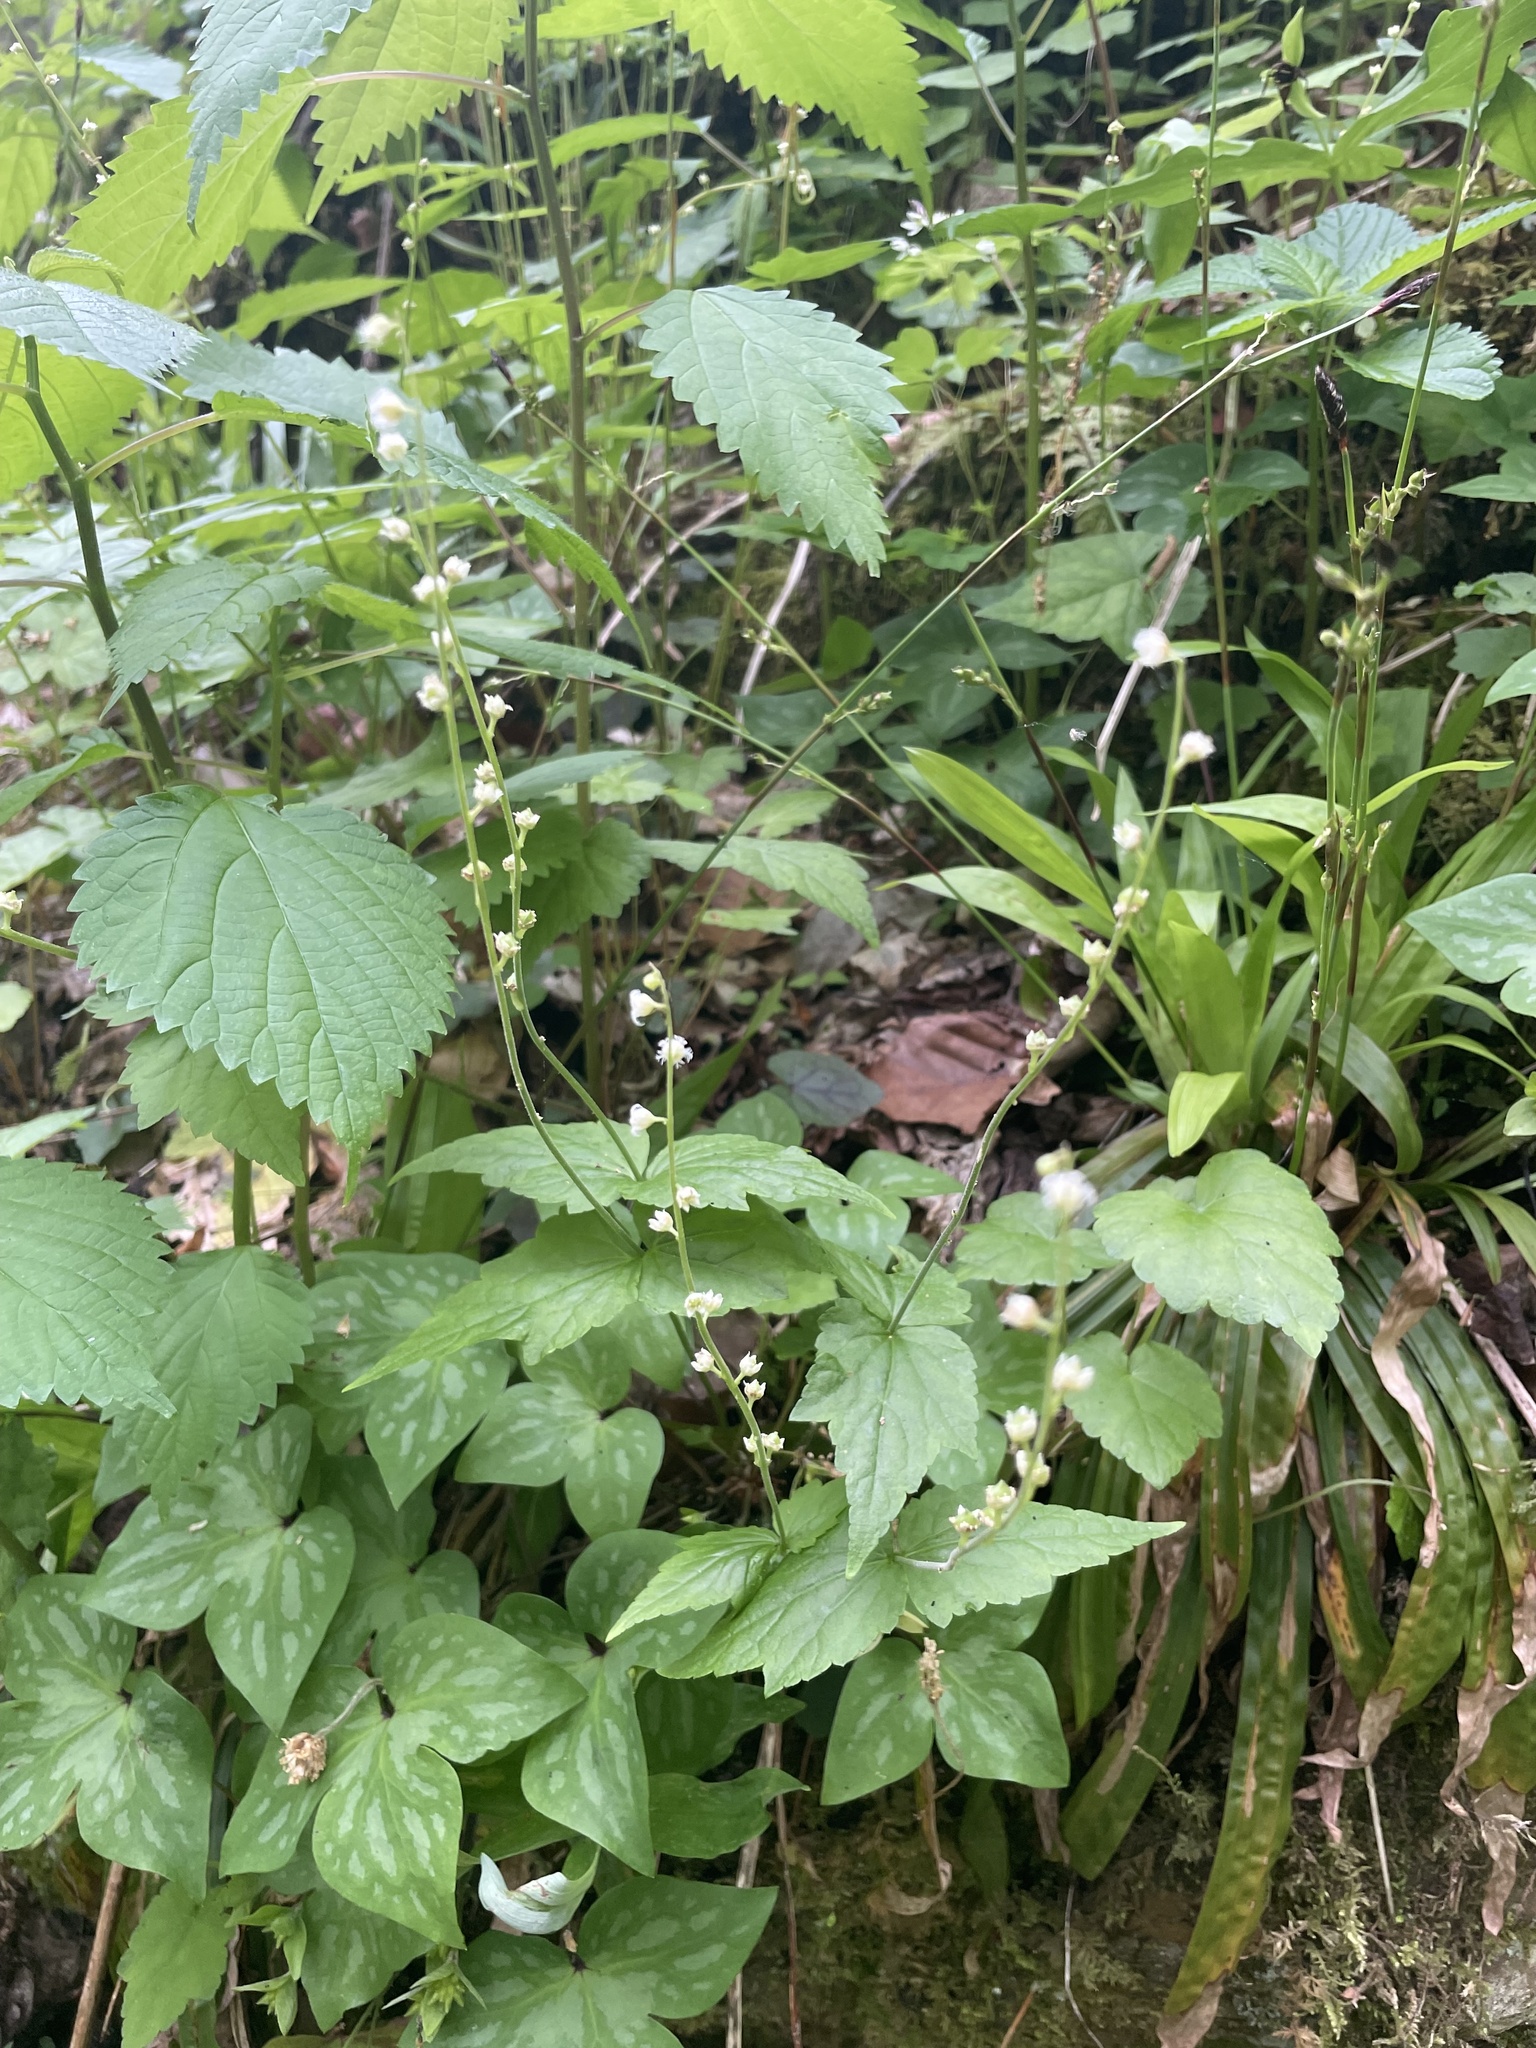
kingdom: Plantae
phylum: Tracheophyta
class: Magnoliopsida
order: Saxifragales
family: Saxifragaceae
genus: Mitella
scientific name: Mitella diphylla
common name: Coolwort
